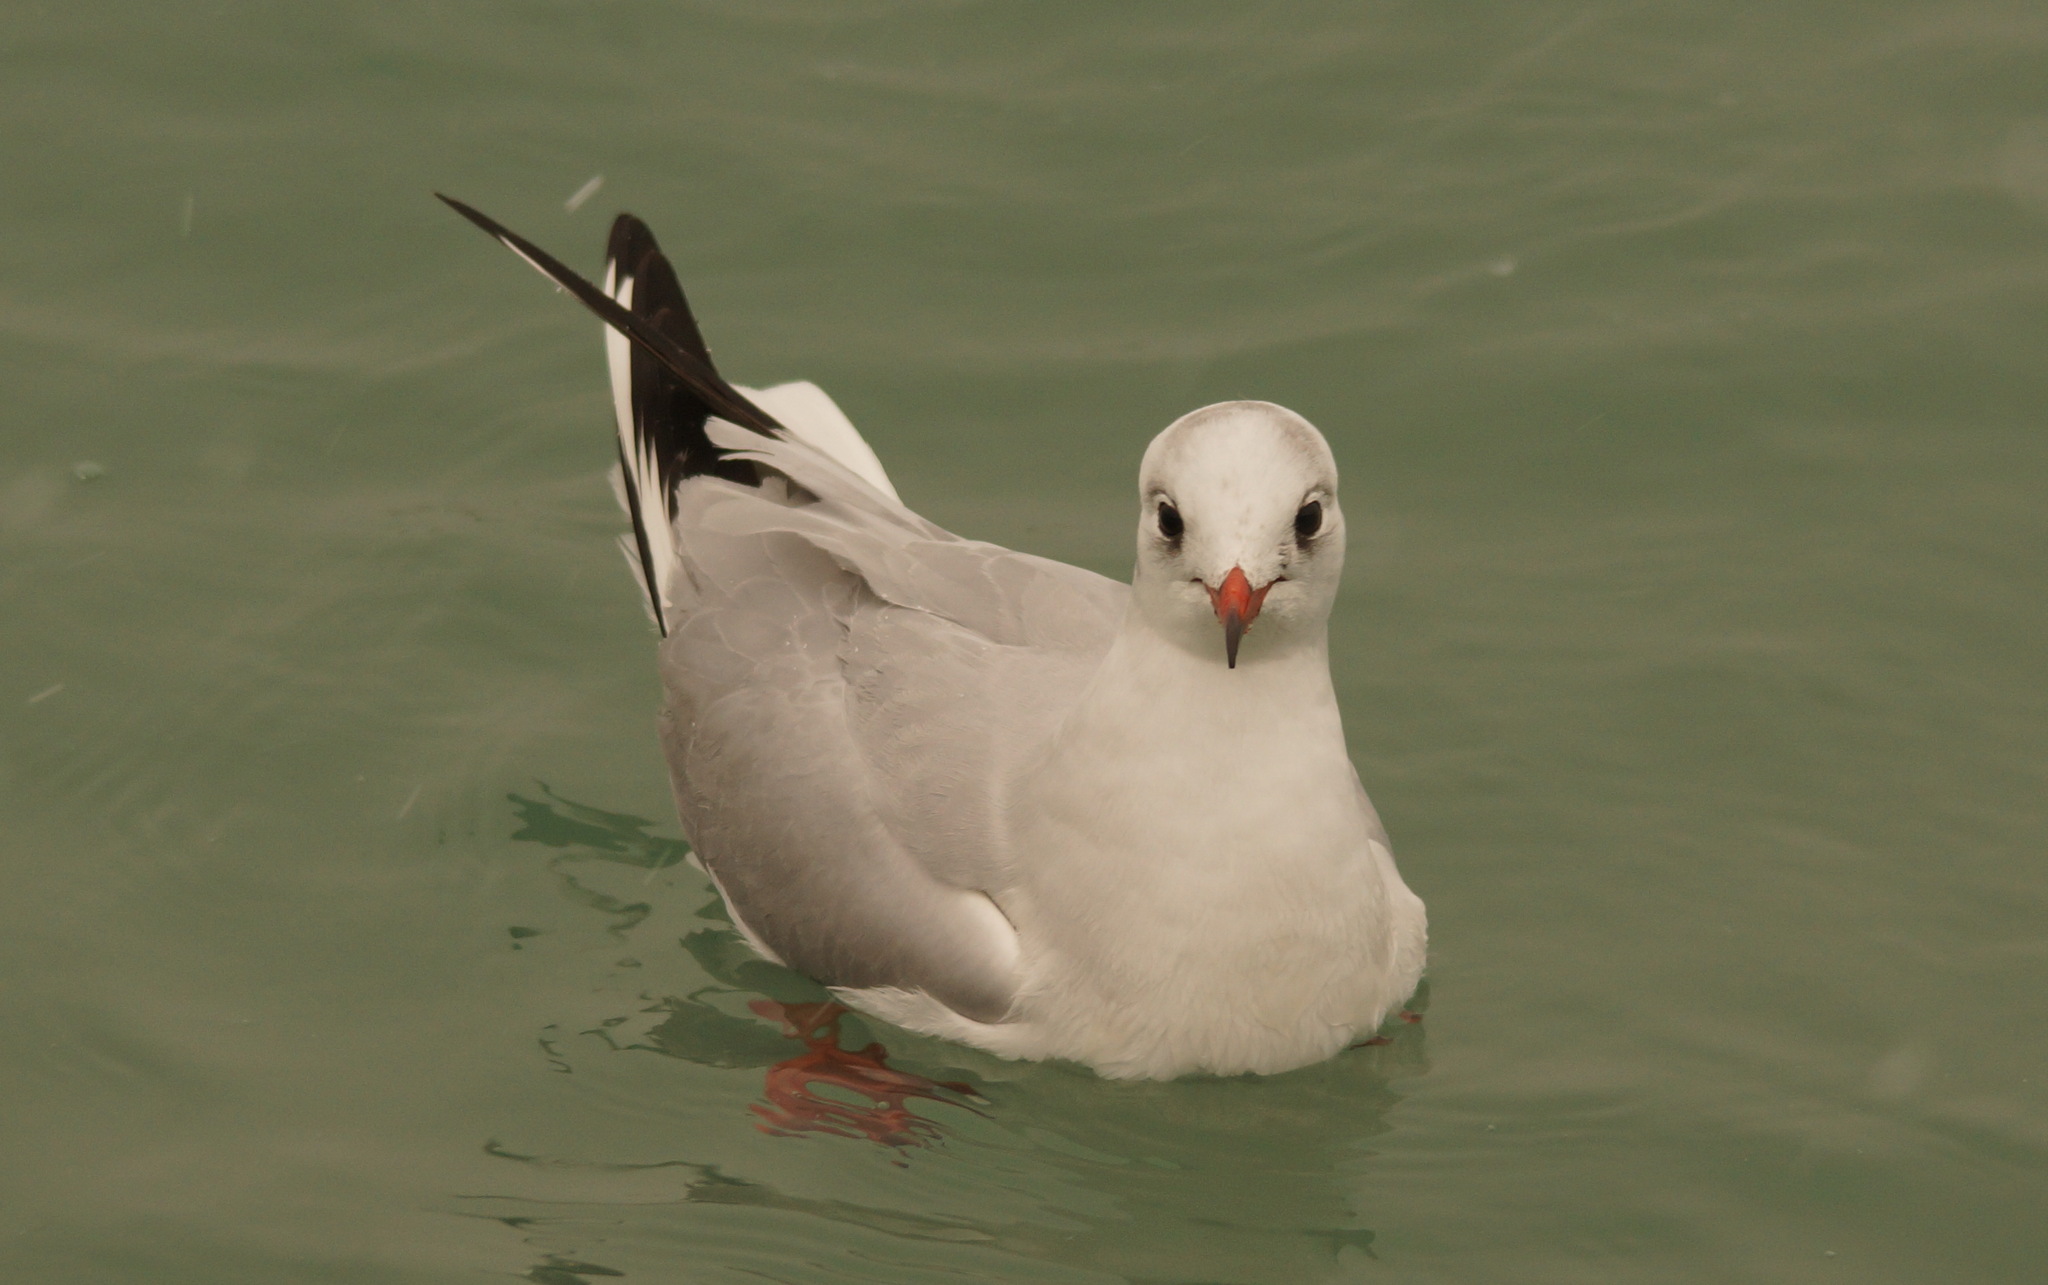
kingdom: Animalia
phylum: Chordata
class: Aves
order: Charadriiformes
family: Laridae
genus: Chroicocephalus
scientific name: Chroicocephalus ridibundus
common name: Black-headed gull
